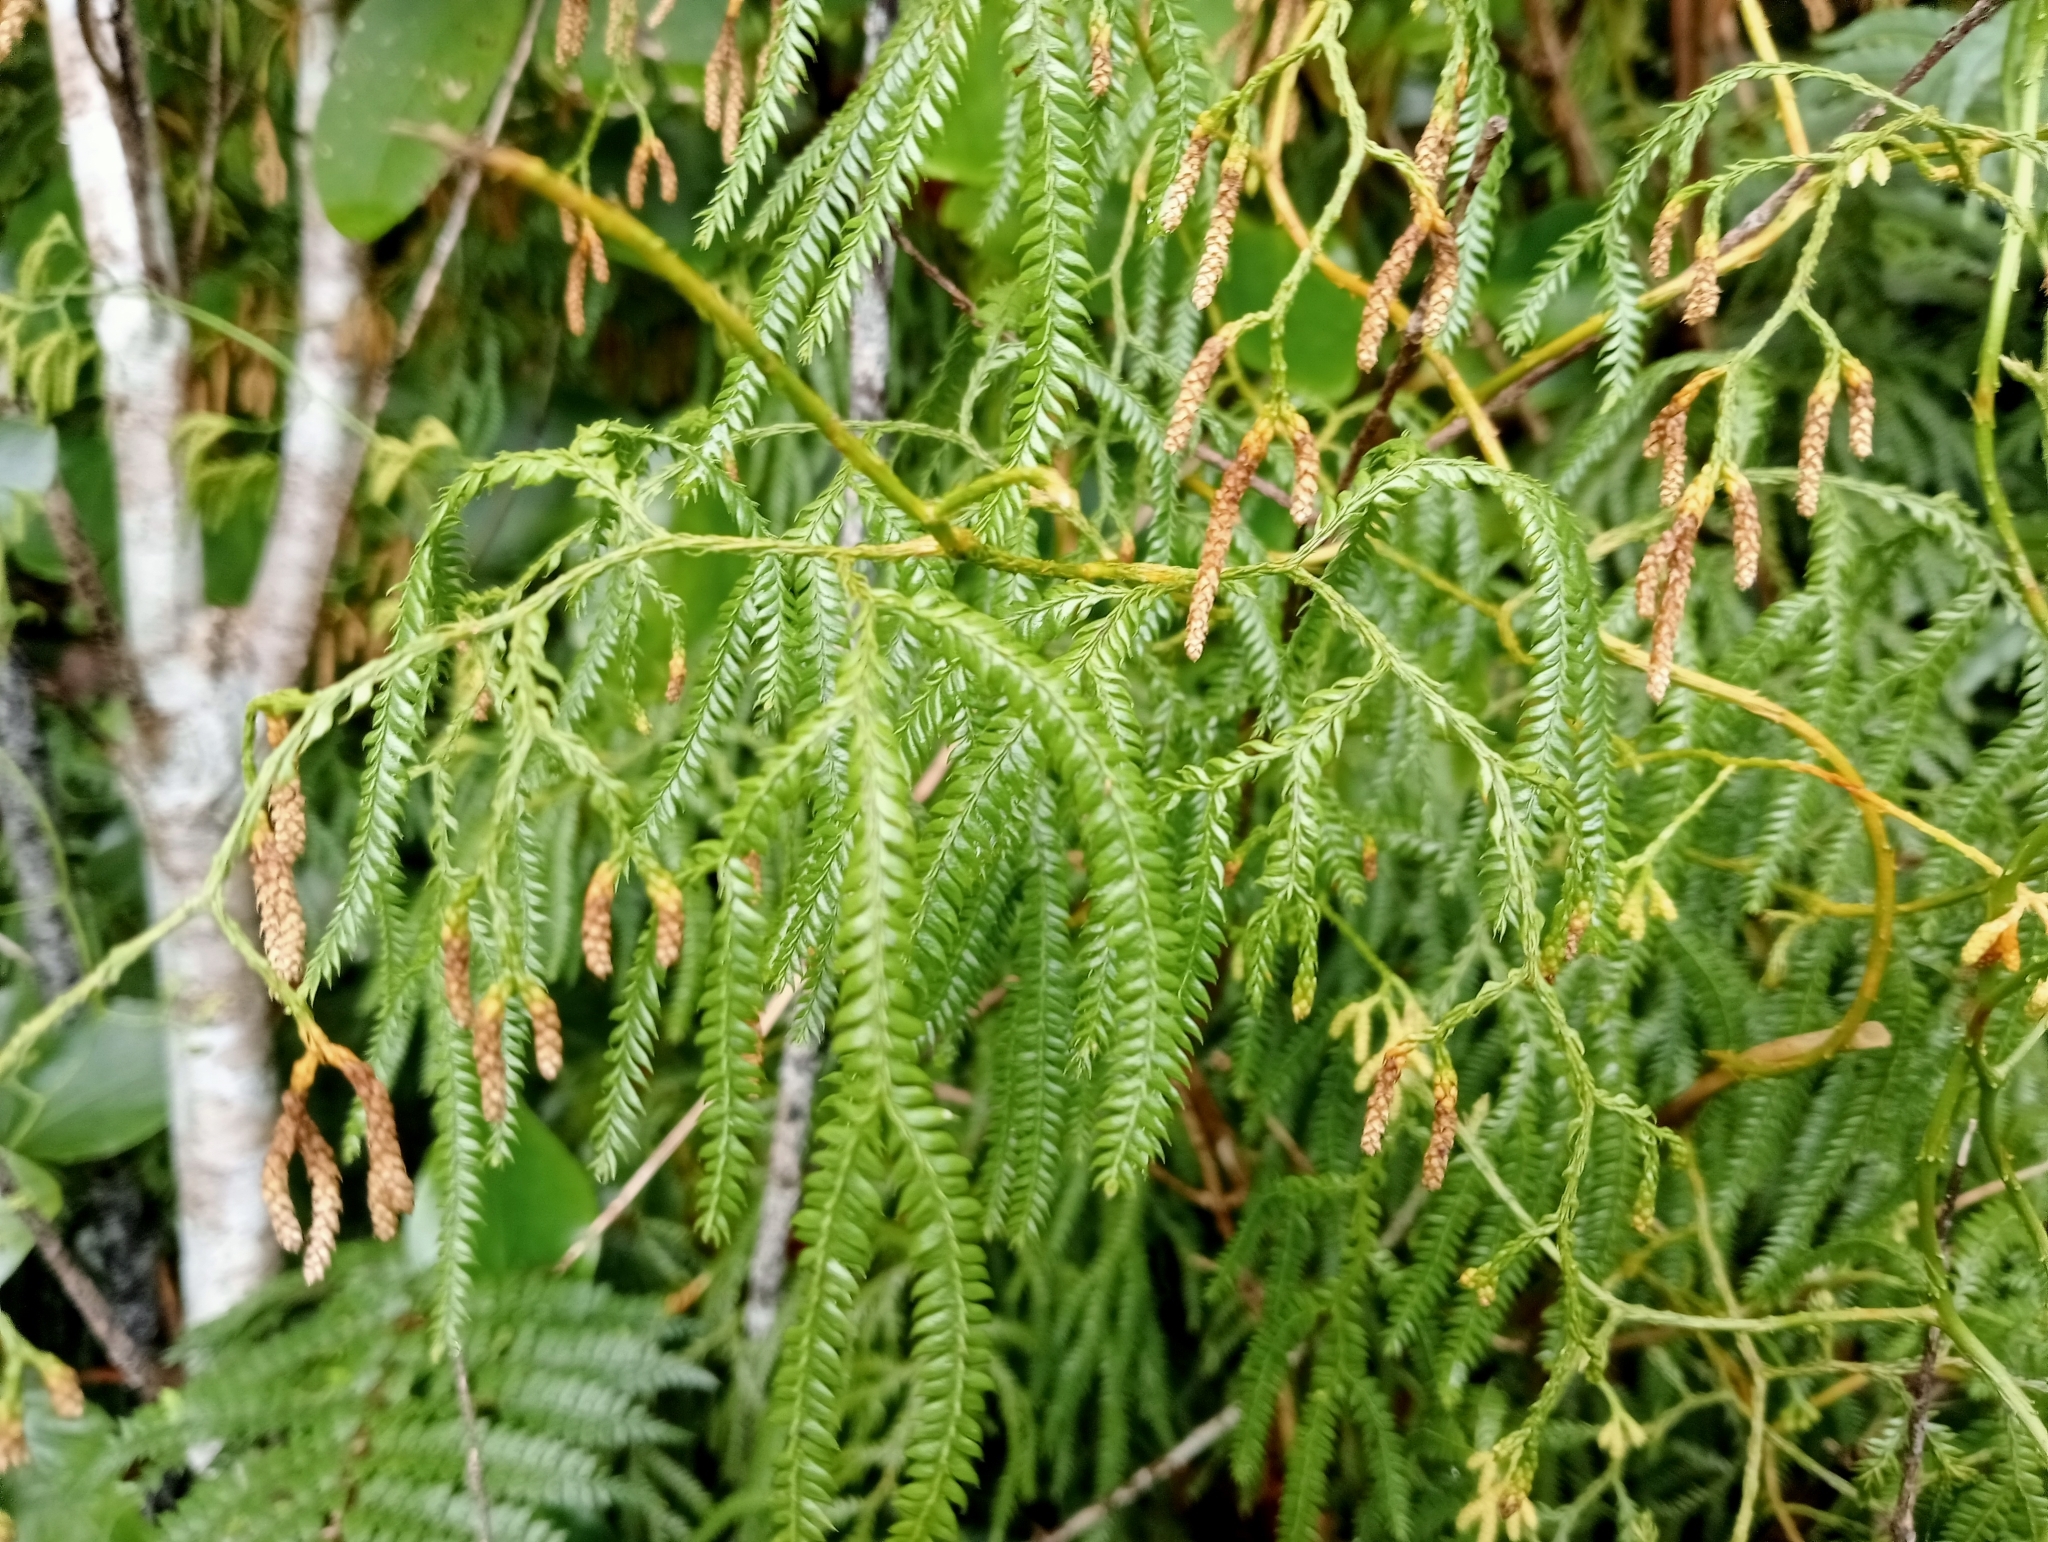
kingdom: Plantae
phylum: Tracheophyta
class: Lycopodiopsida
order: Lycopodiales
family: Lycopodiaceae
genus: Lycopodium
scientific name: Lycopodium volubile
